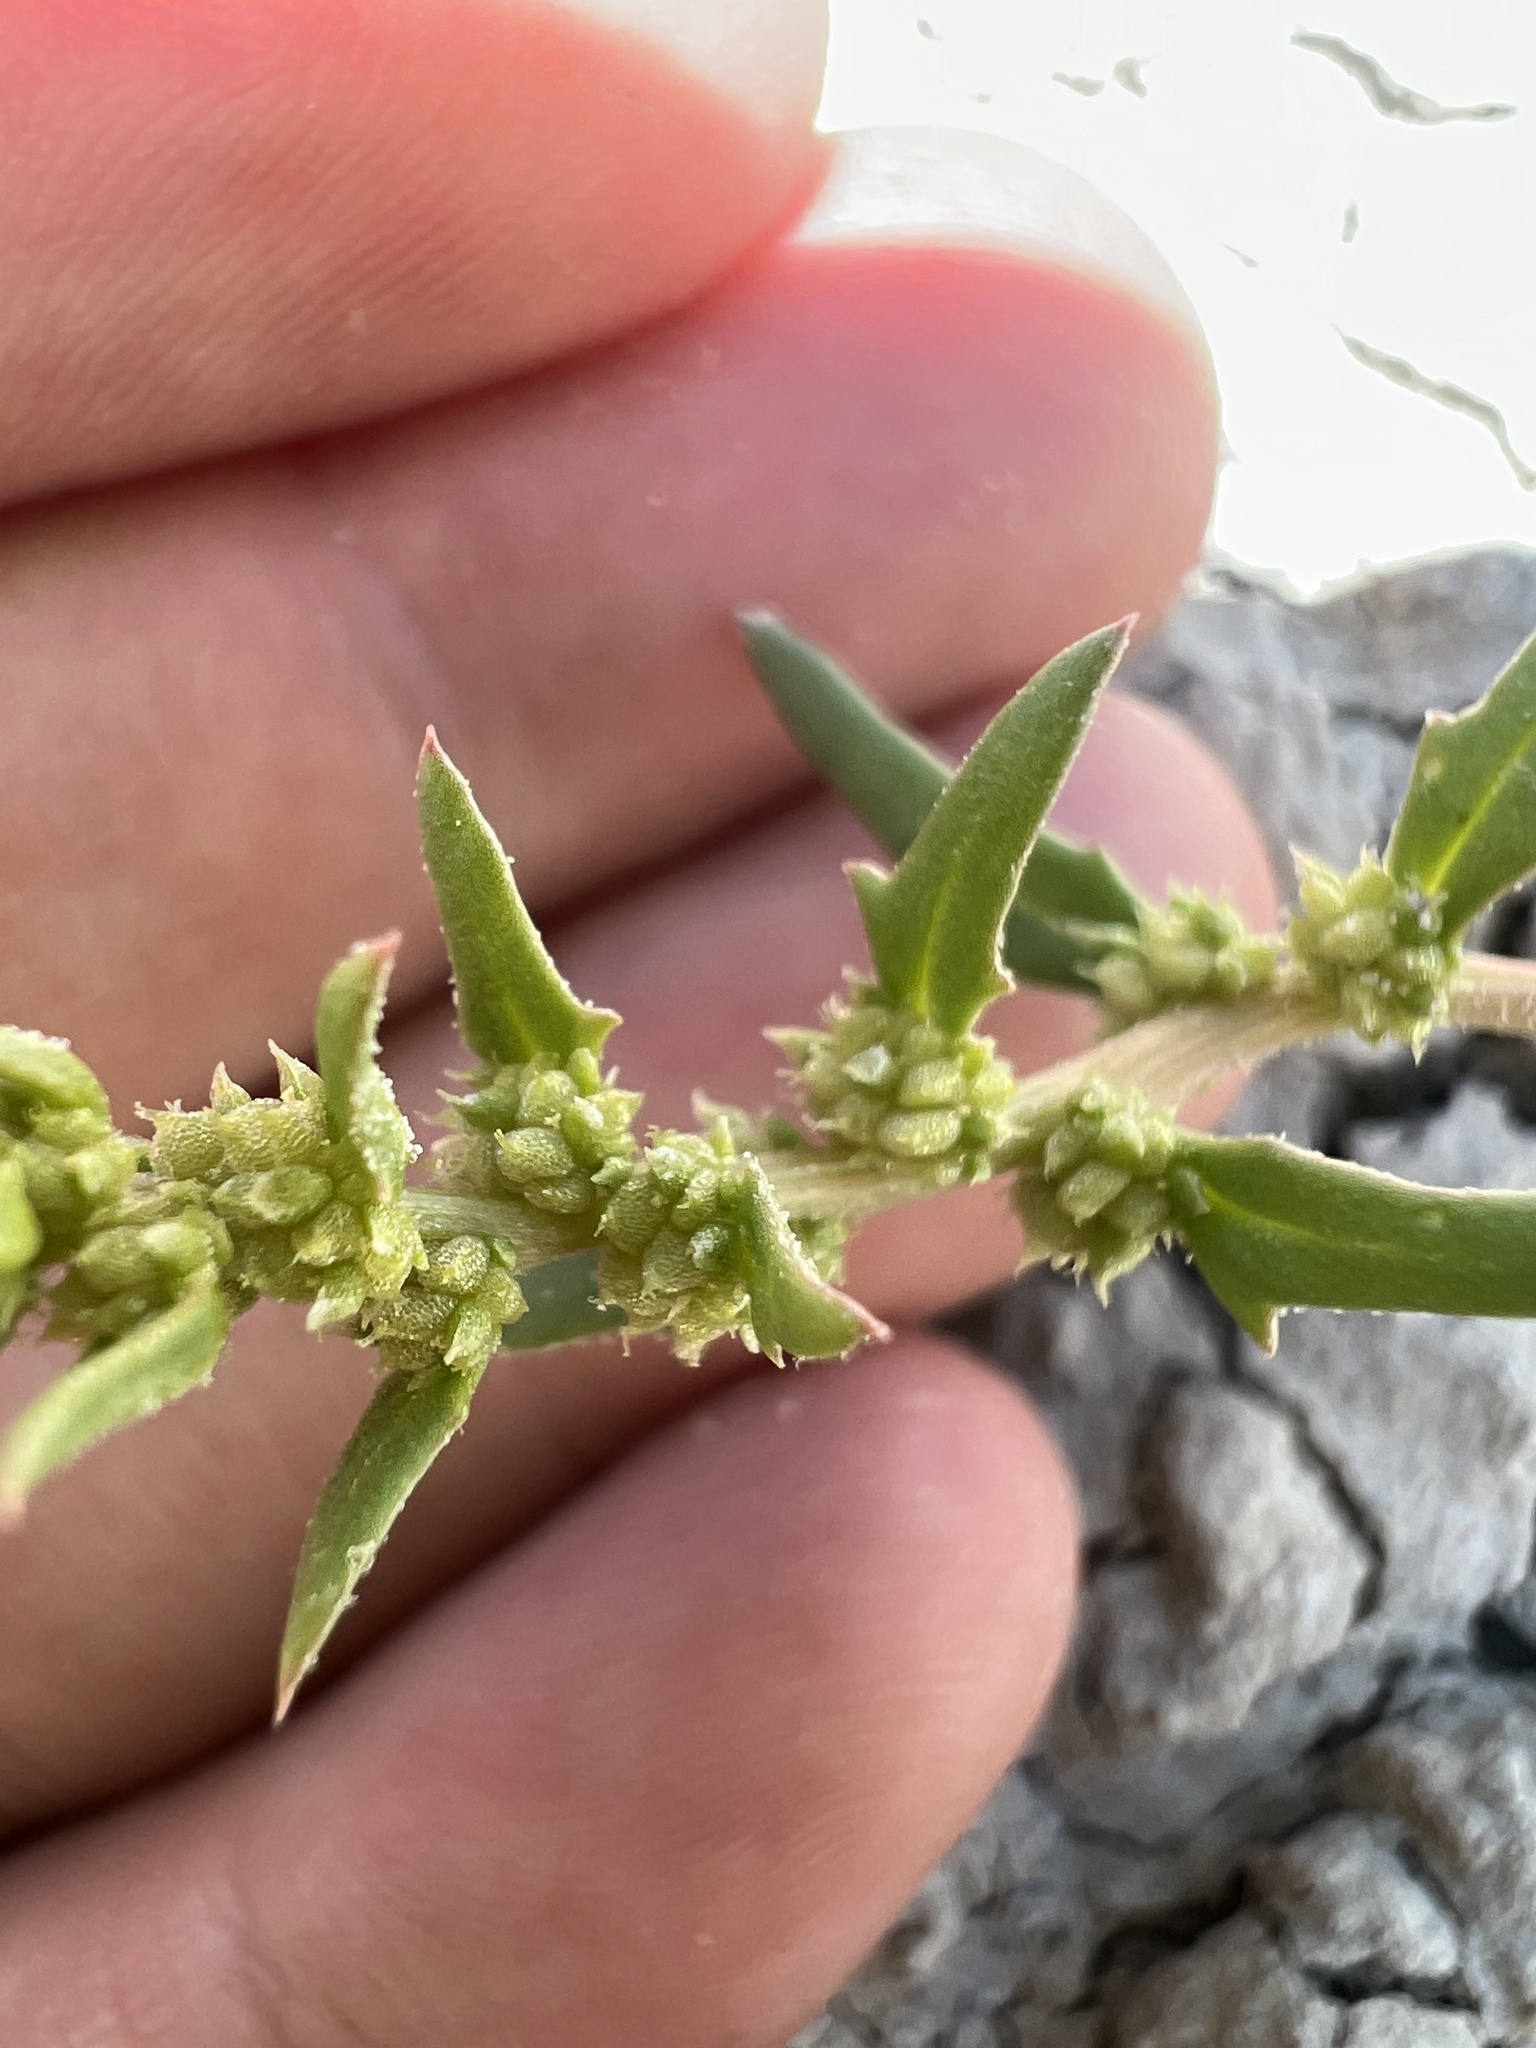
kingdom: Plantae
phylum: Tracheophyta
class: Magnoliopsida
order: Caryophyllales
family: Amaranthaceae
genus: Blitum
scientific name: Blitum nuttallianum
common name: Poverty-weed
